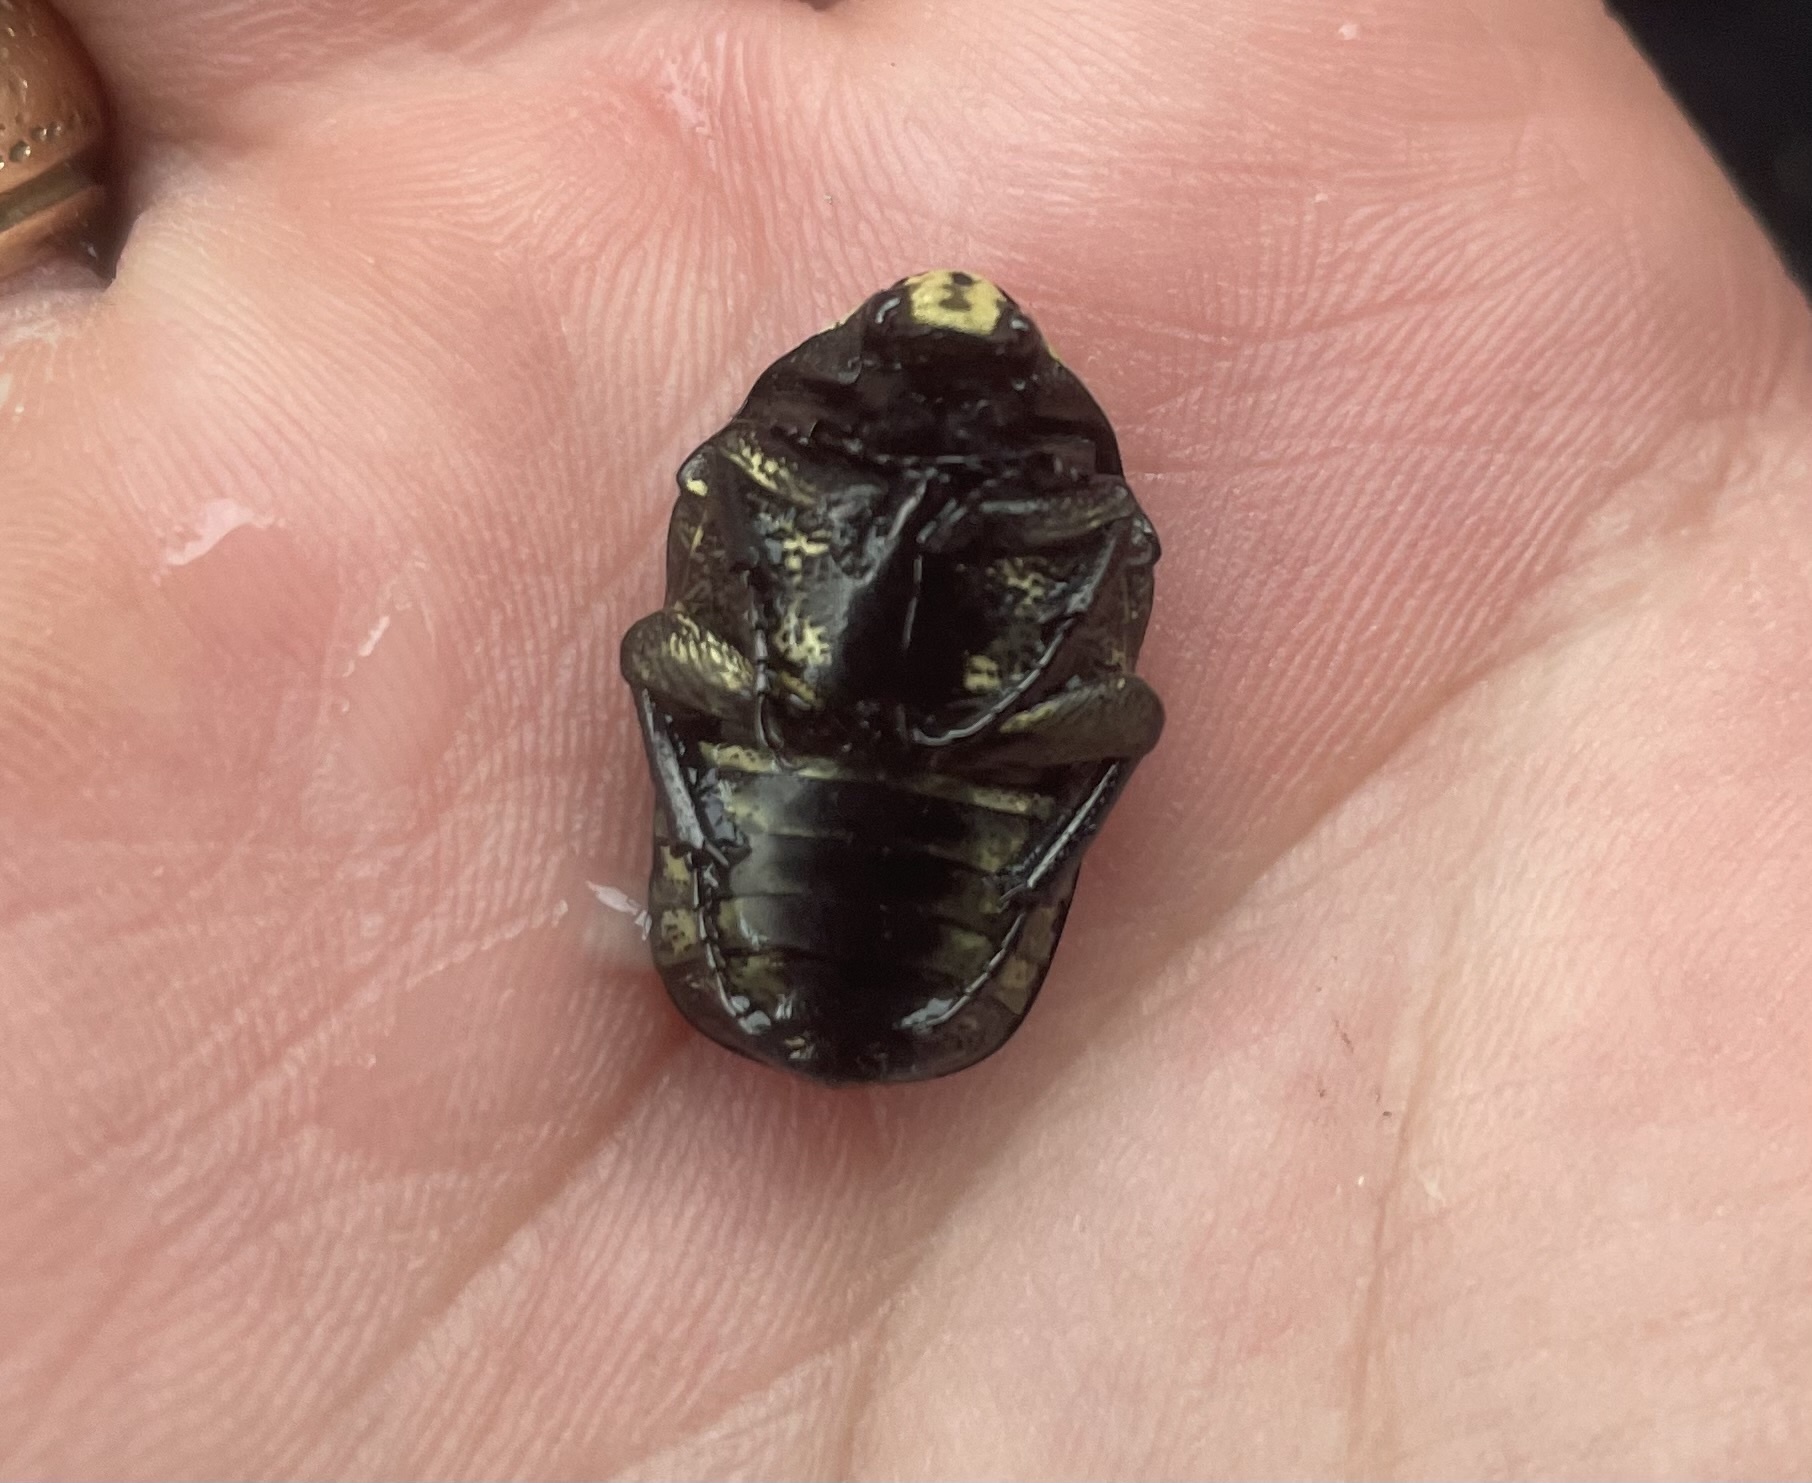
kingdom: Animalia
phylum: Arthropoda
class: Insecta
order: Coleoptera
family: Scarabaeidae
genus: Gymnetis
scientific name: Gymnetis thula
